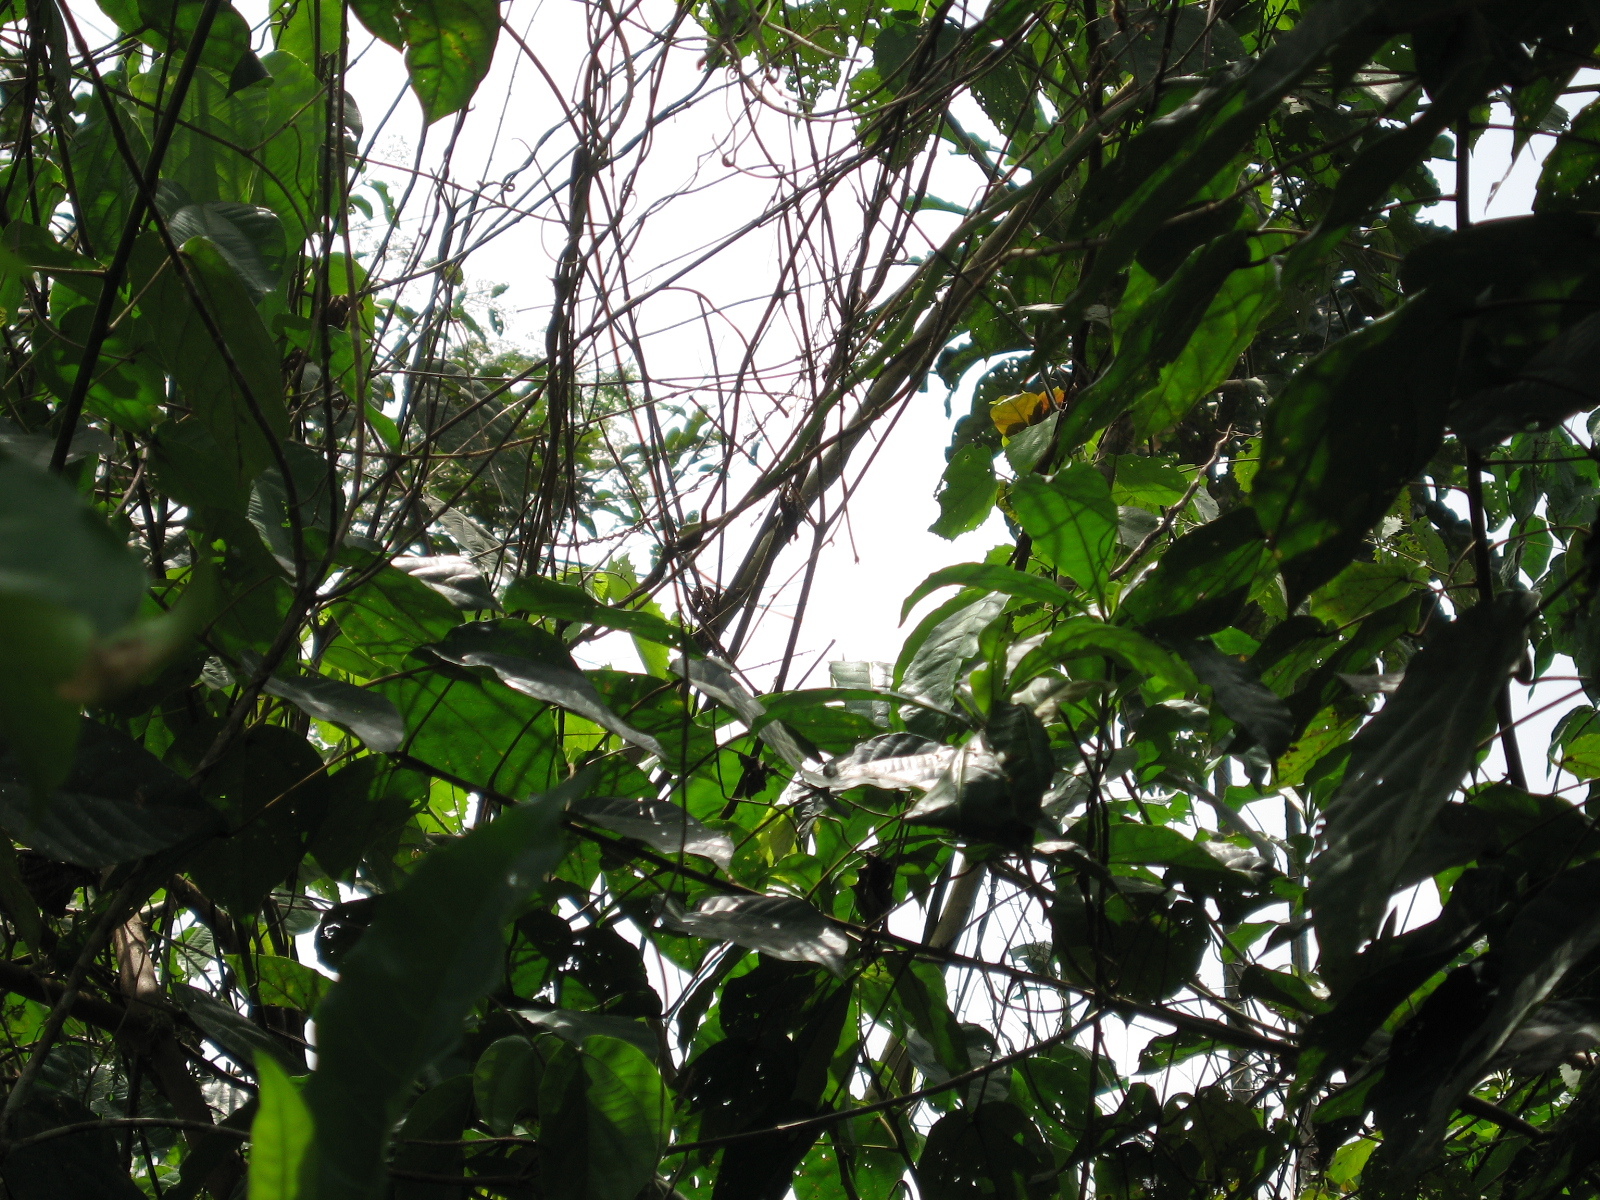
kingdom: Animalia
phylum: Chordata
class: Squamata
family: Colubridae
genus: Thelotornis
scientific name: Thelotornis kirtlandii
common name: Bird snake
